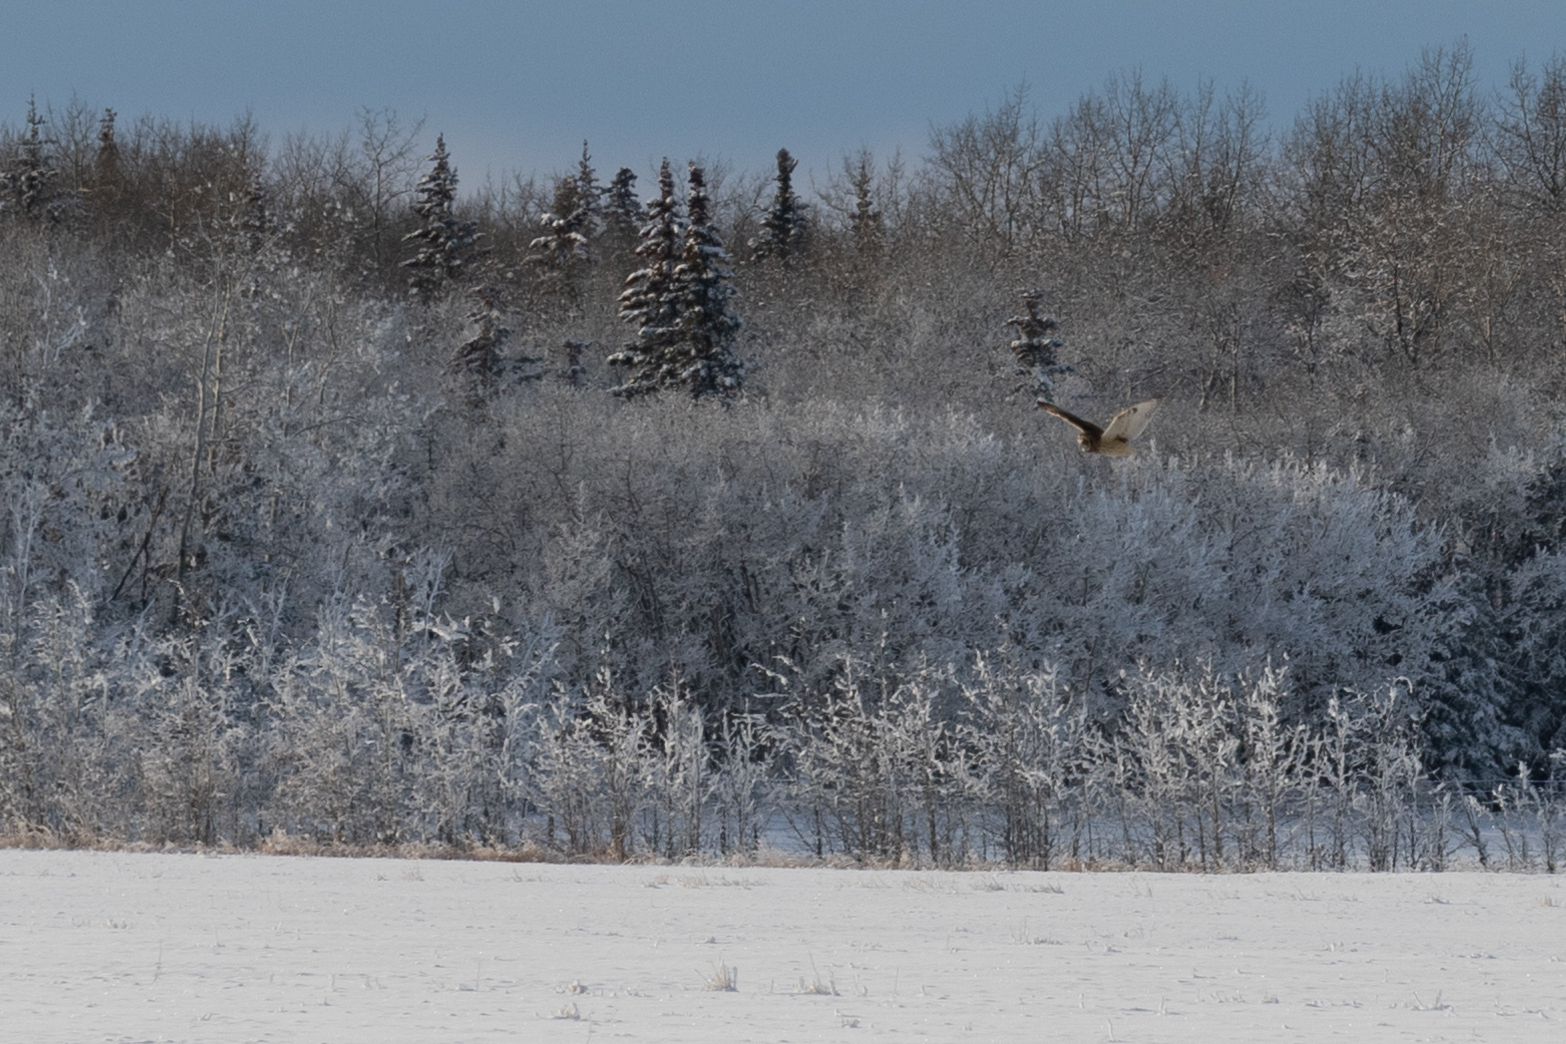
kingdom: Animalia
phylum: Chordata
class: Aves
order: Strigiformes
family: Strigidae
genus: Asio
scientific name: Asio flammeus
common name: Short-eared owl
